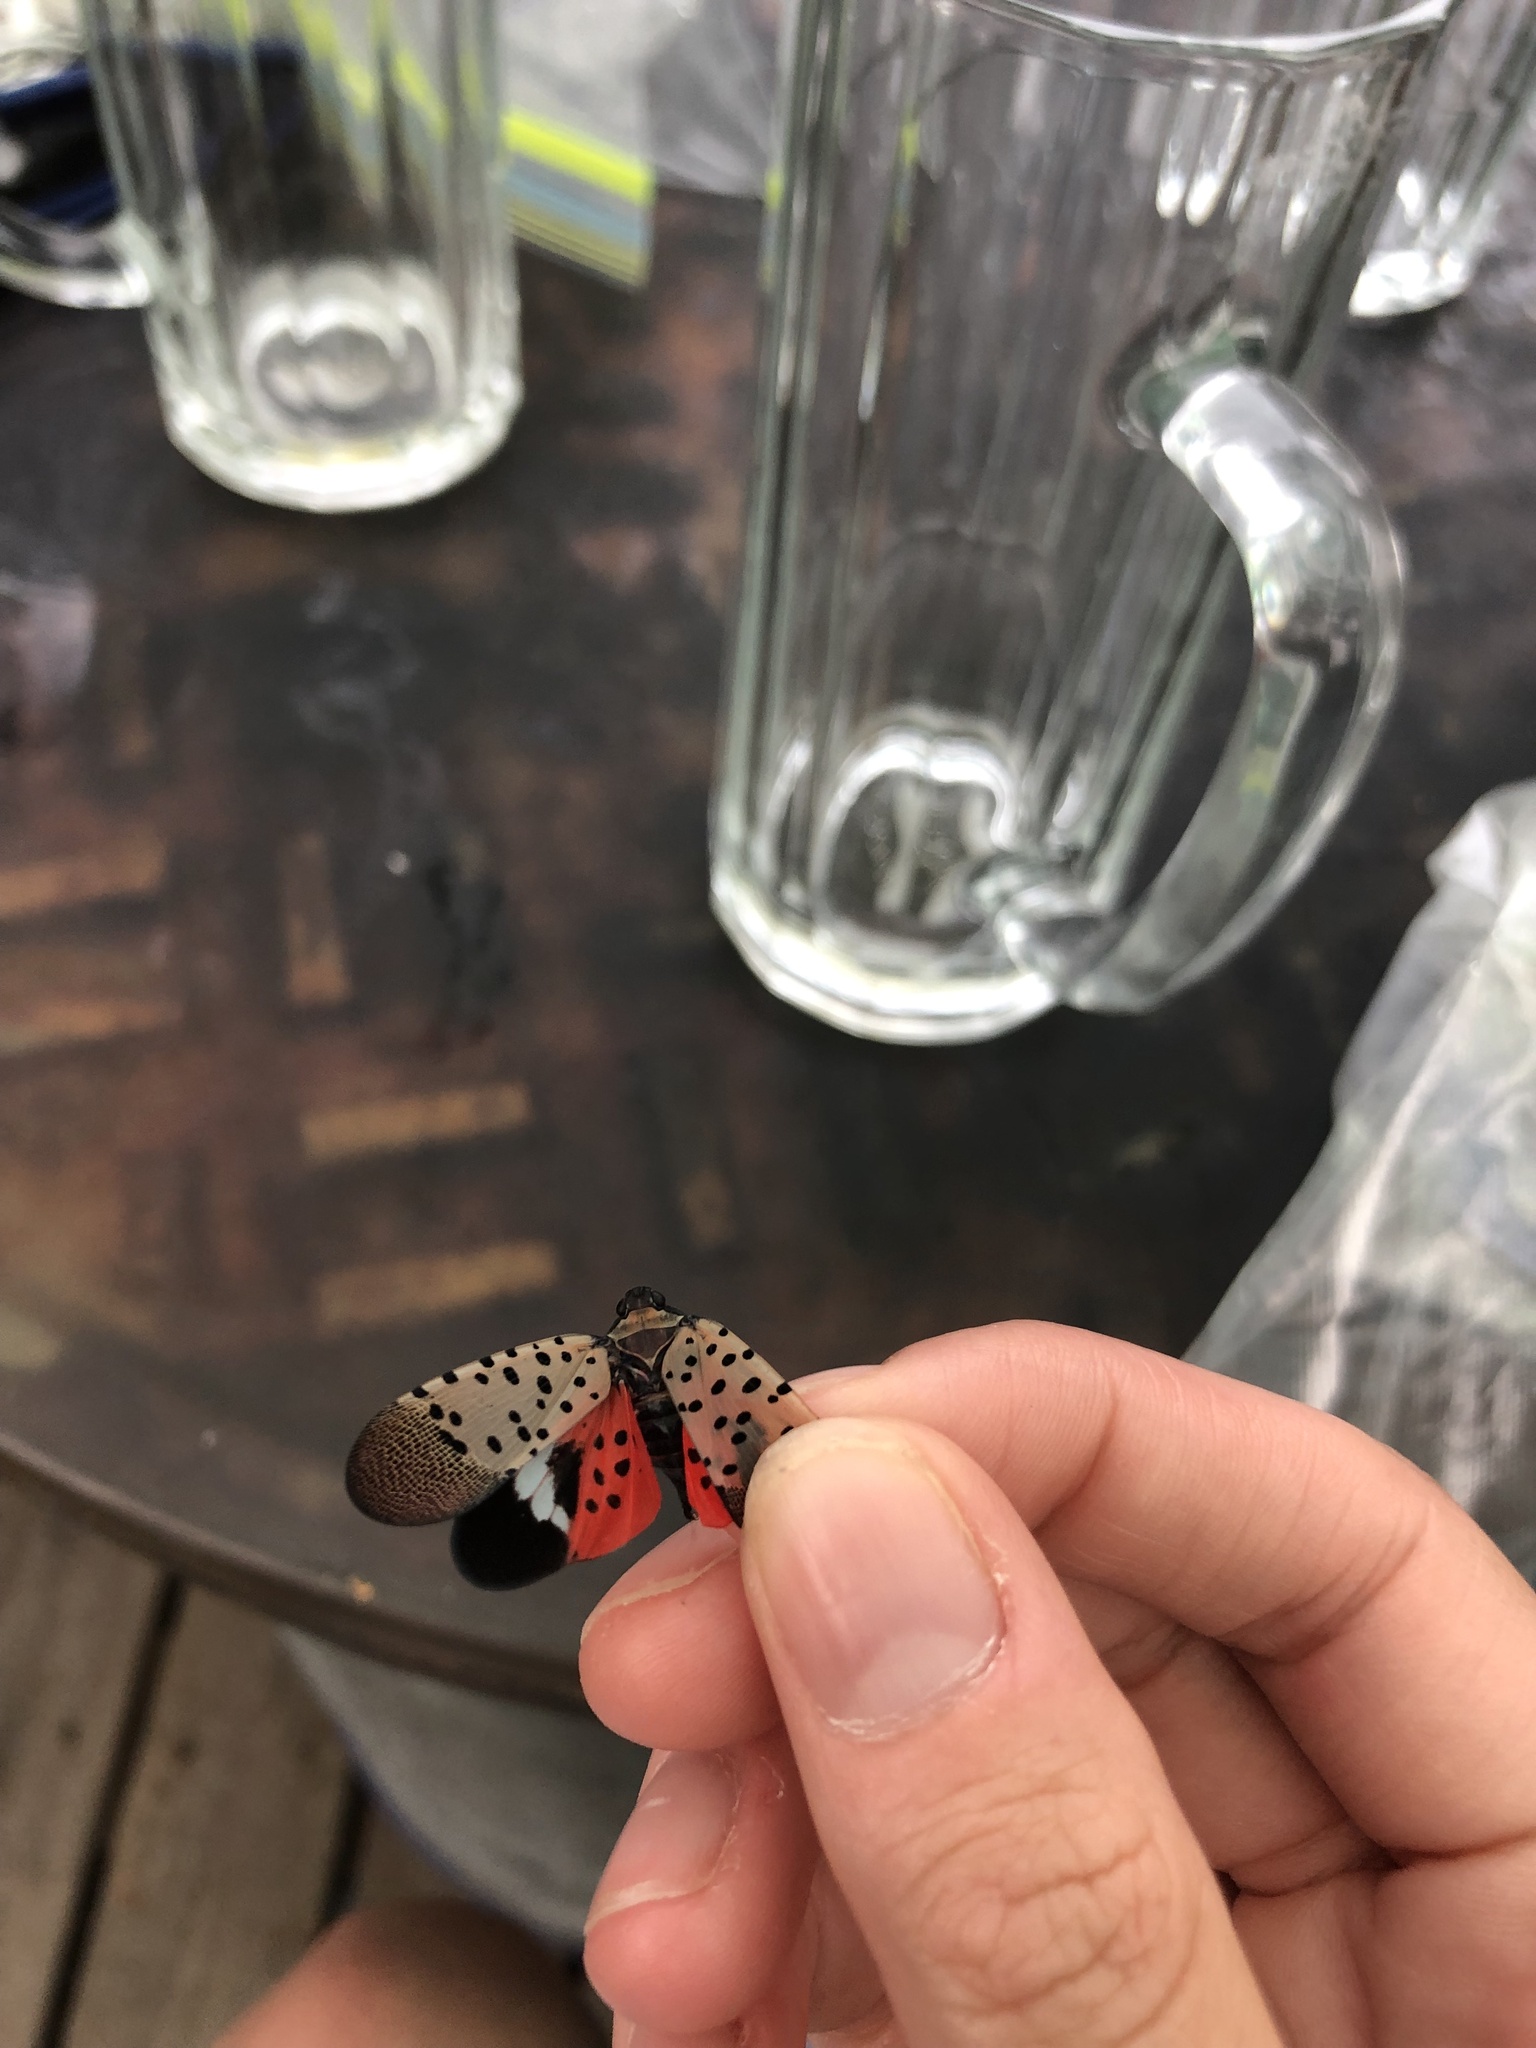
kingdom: Animalia
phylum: Arthropoda
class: Insecta
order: Hemiptera
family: Fulgoridae
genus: Lycorma
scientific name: Lycorma delicatula
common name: Spotted lanternfly
